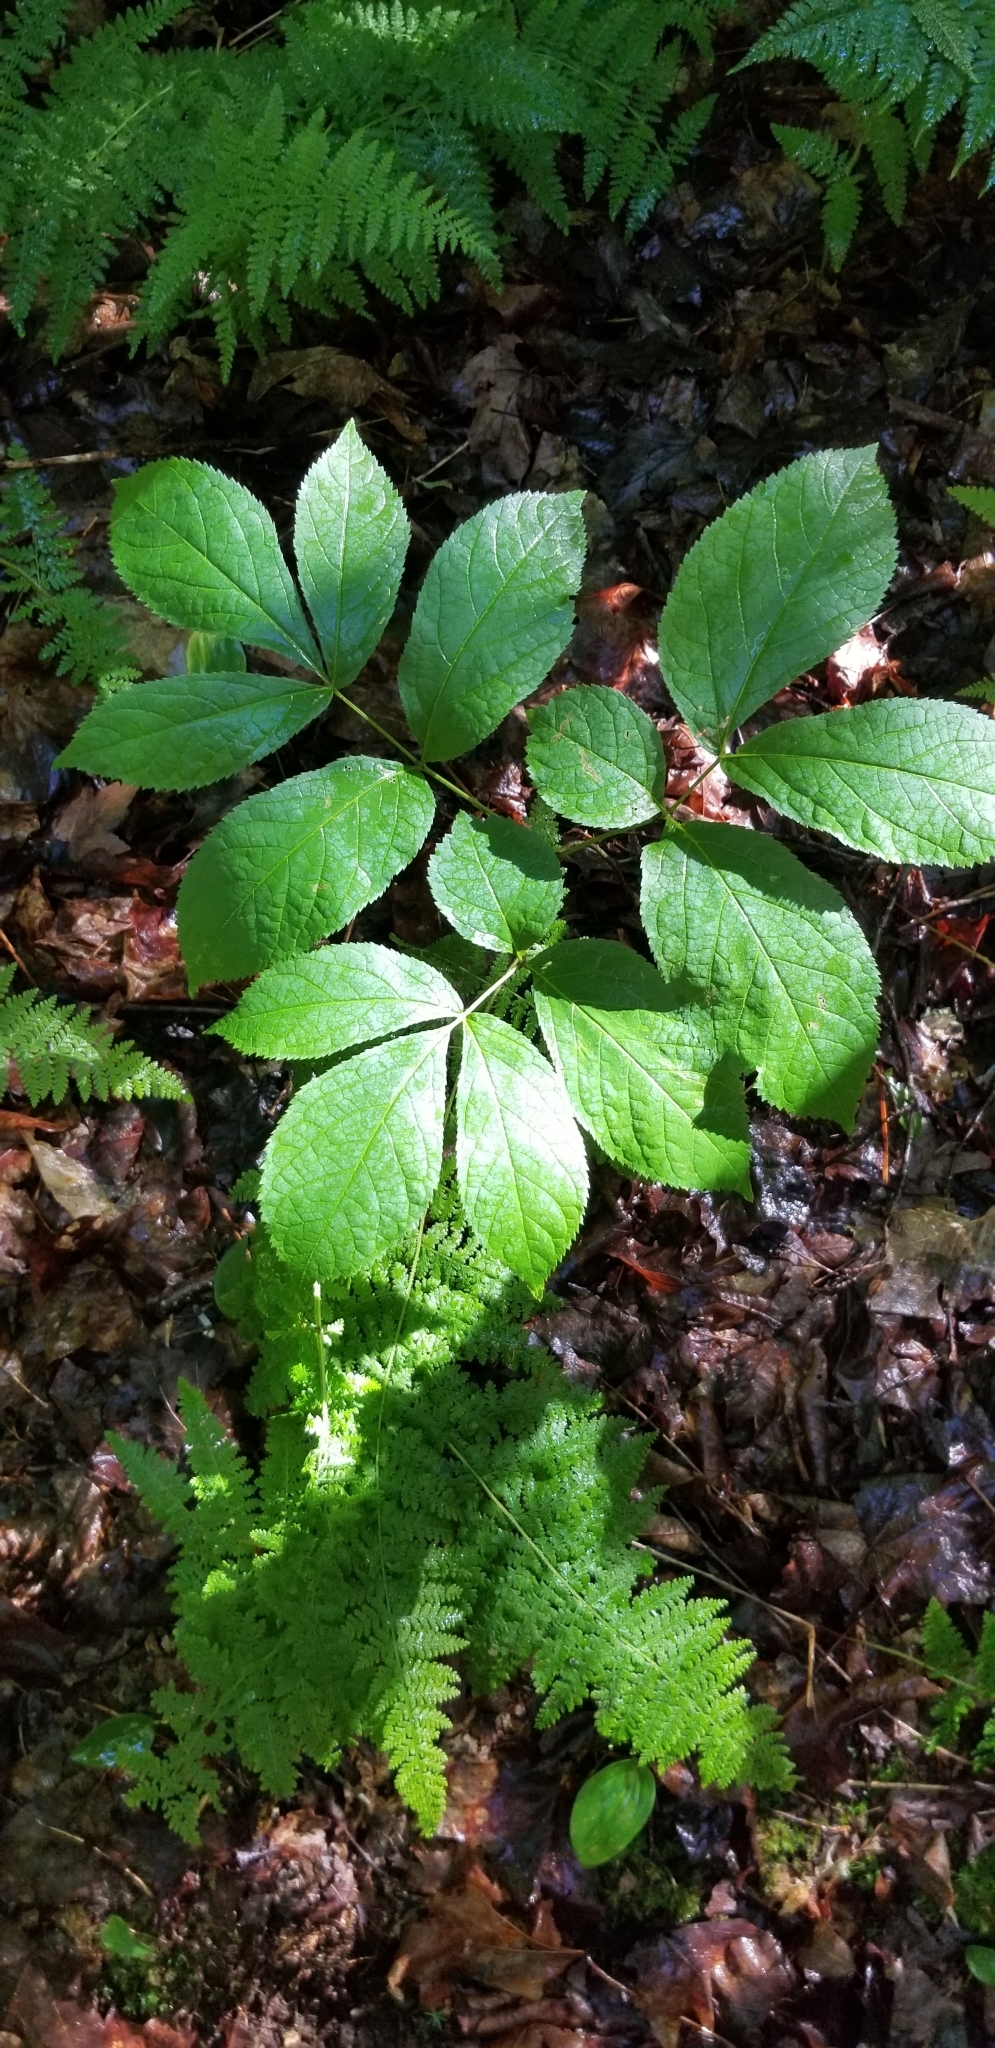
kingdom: Plantae
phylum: Tracheophyta
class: Magnoliopsida
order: Apiales
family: Araliaceae
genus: Aralia
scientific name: Aralia nudicaulis
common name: Wild sarsaparilla
